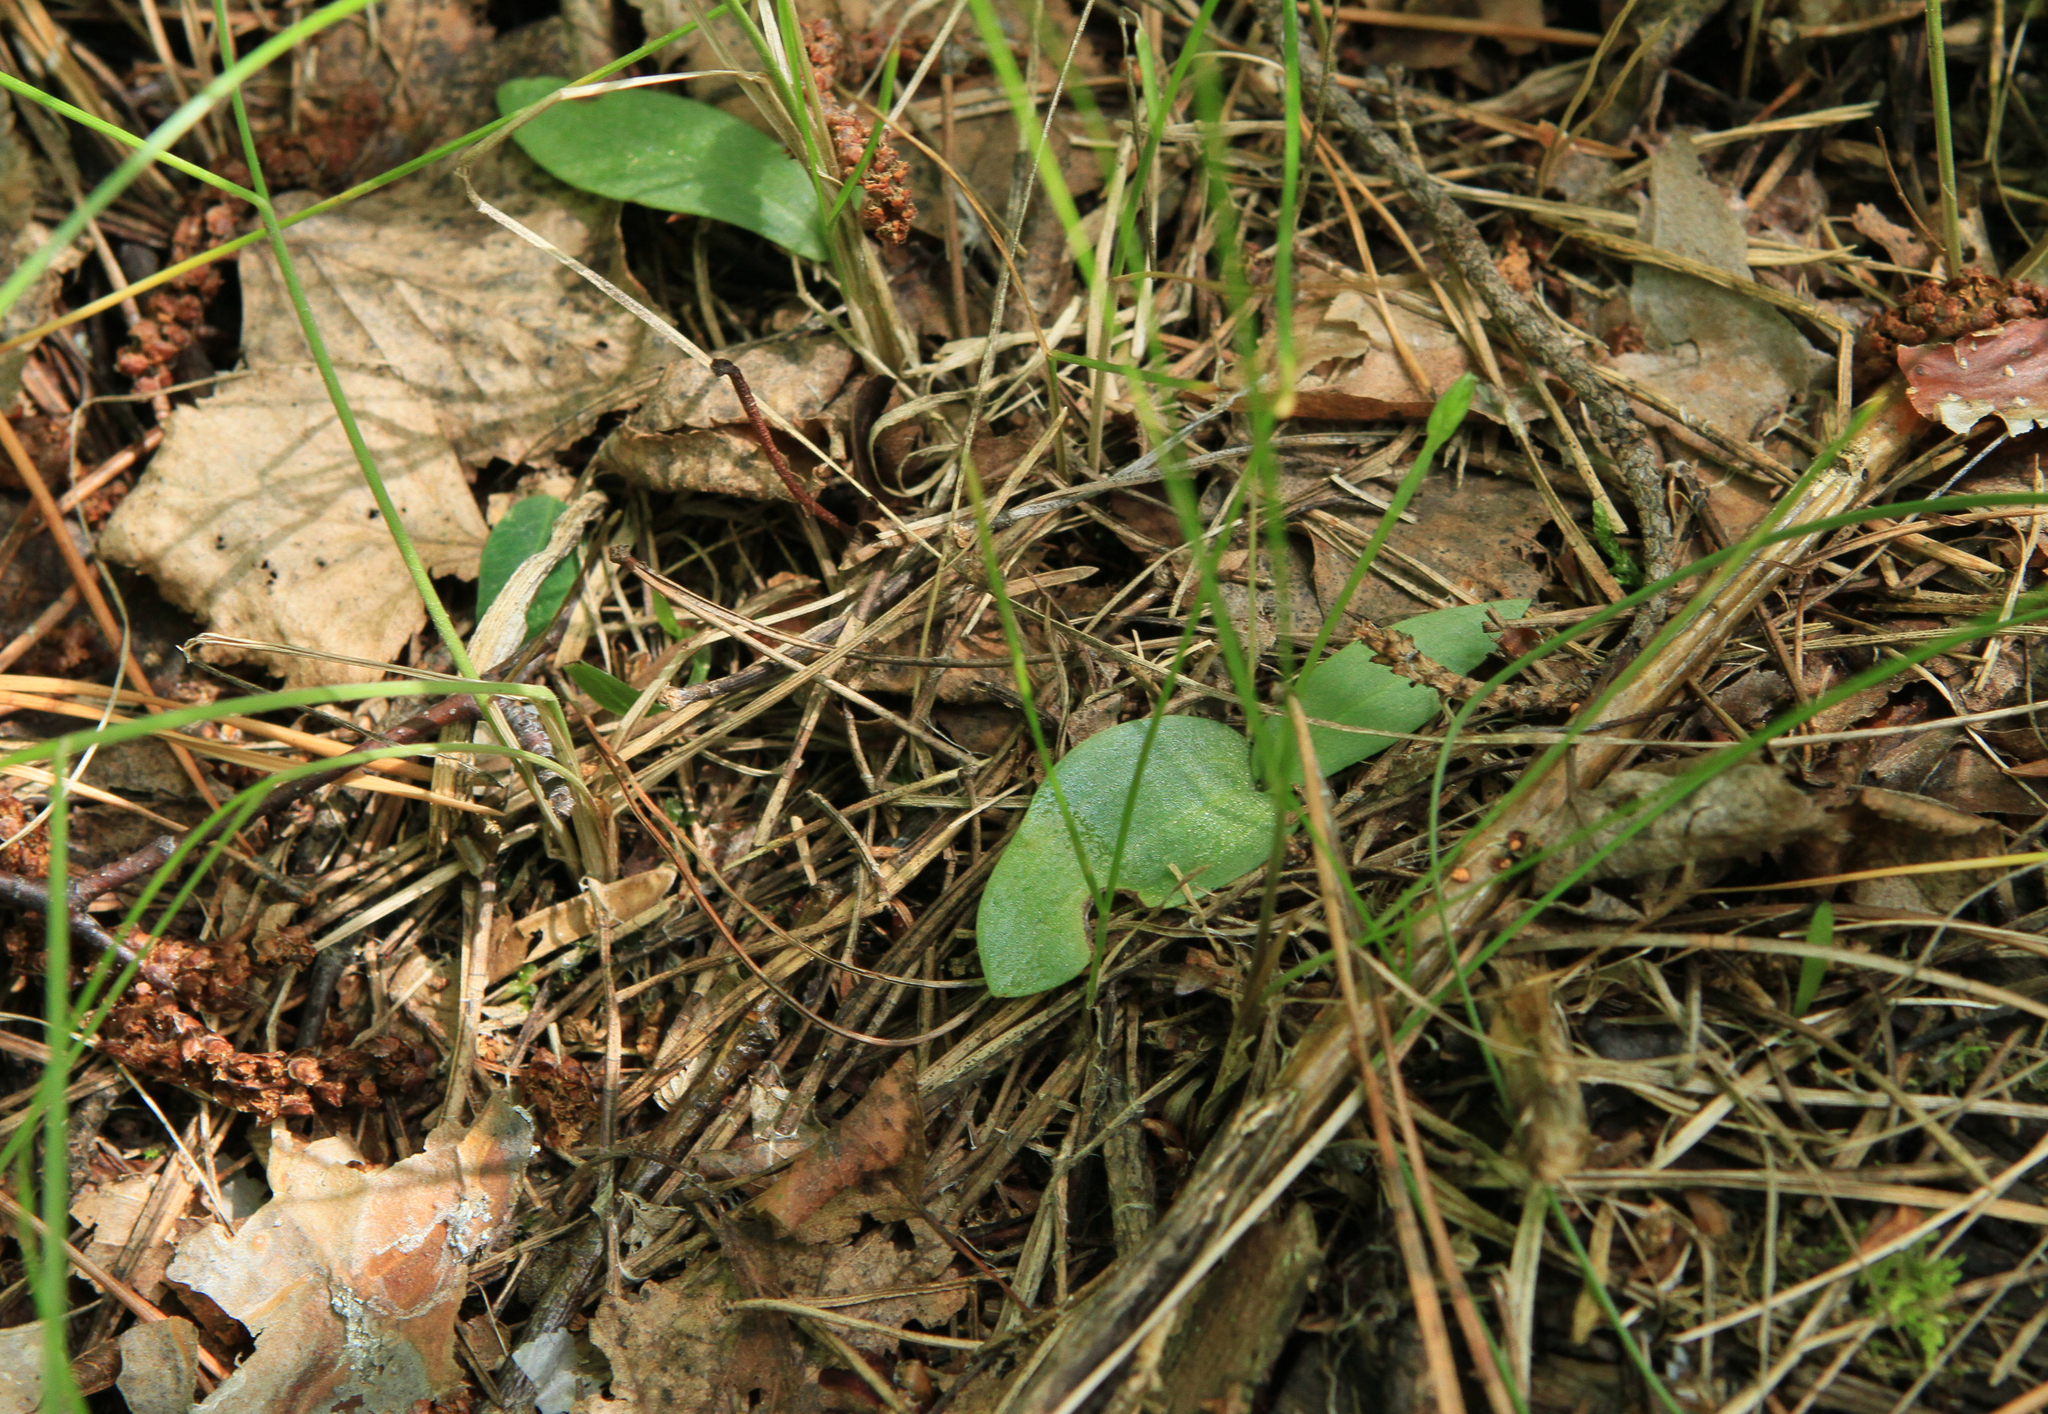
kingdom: Plantae
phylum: Tracheophyta
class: Liliopsida
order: Asparagales
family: Orchidaceae
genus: Hemipilia
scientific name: Hemipilia cucullata
